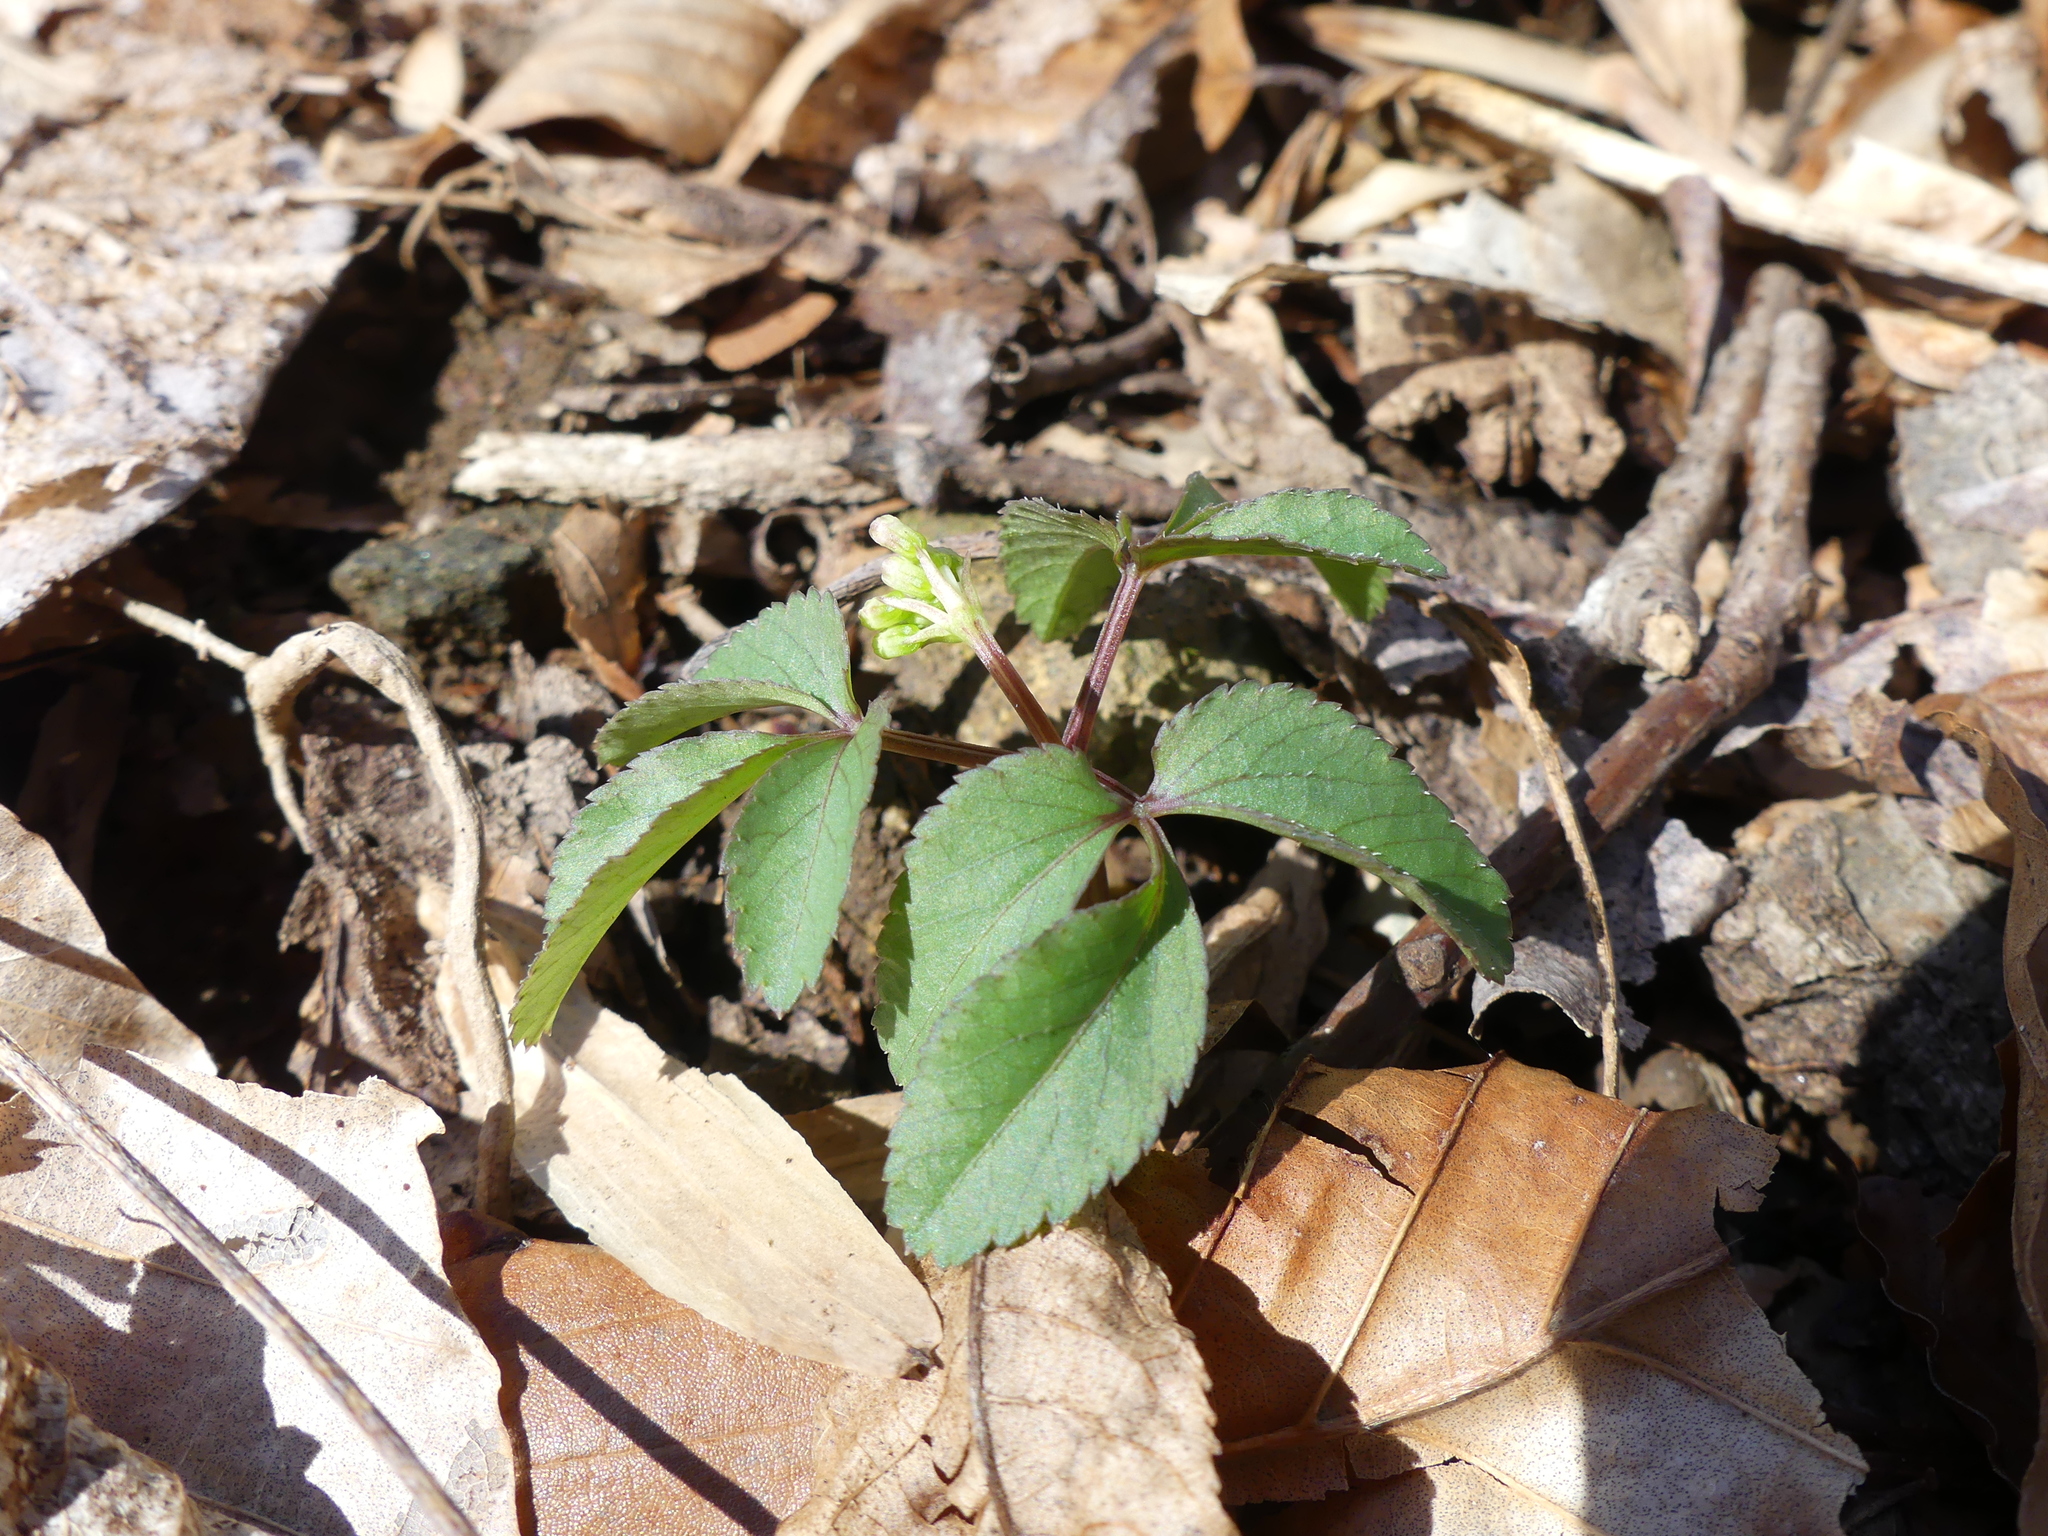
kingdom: Plantae
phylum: Tracheophyta
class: Magnoliopsida
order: Apiales
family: Araliaceae
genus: Panax
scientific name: Panax trifolius
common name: Dwarf ginseng
